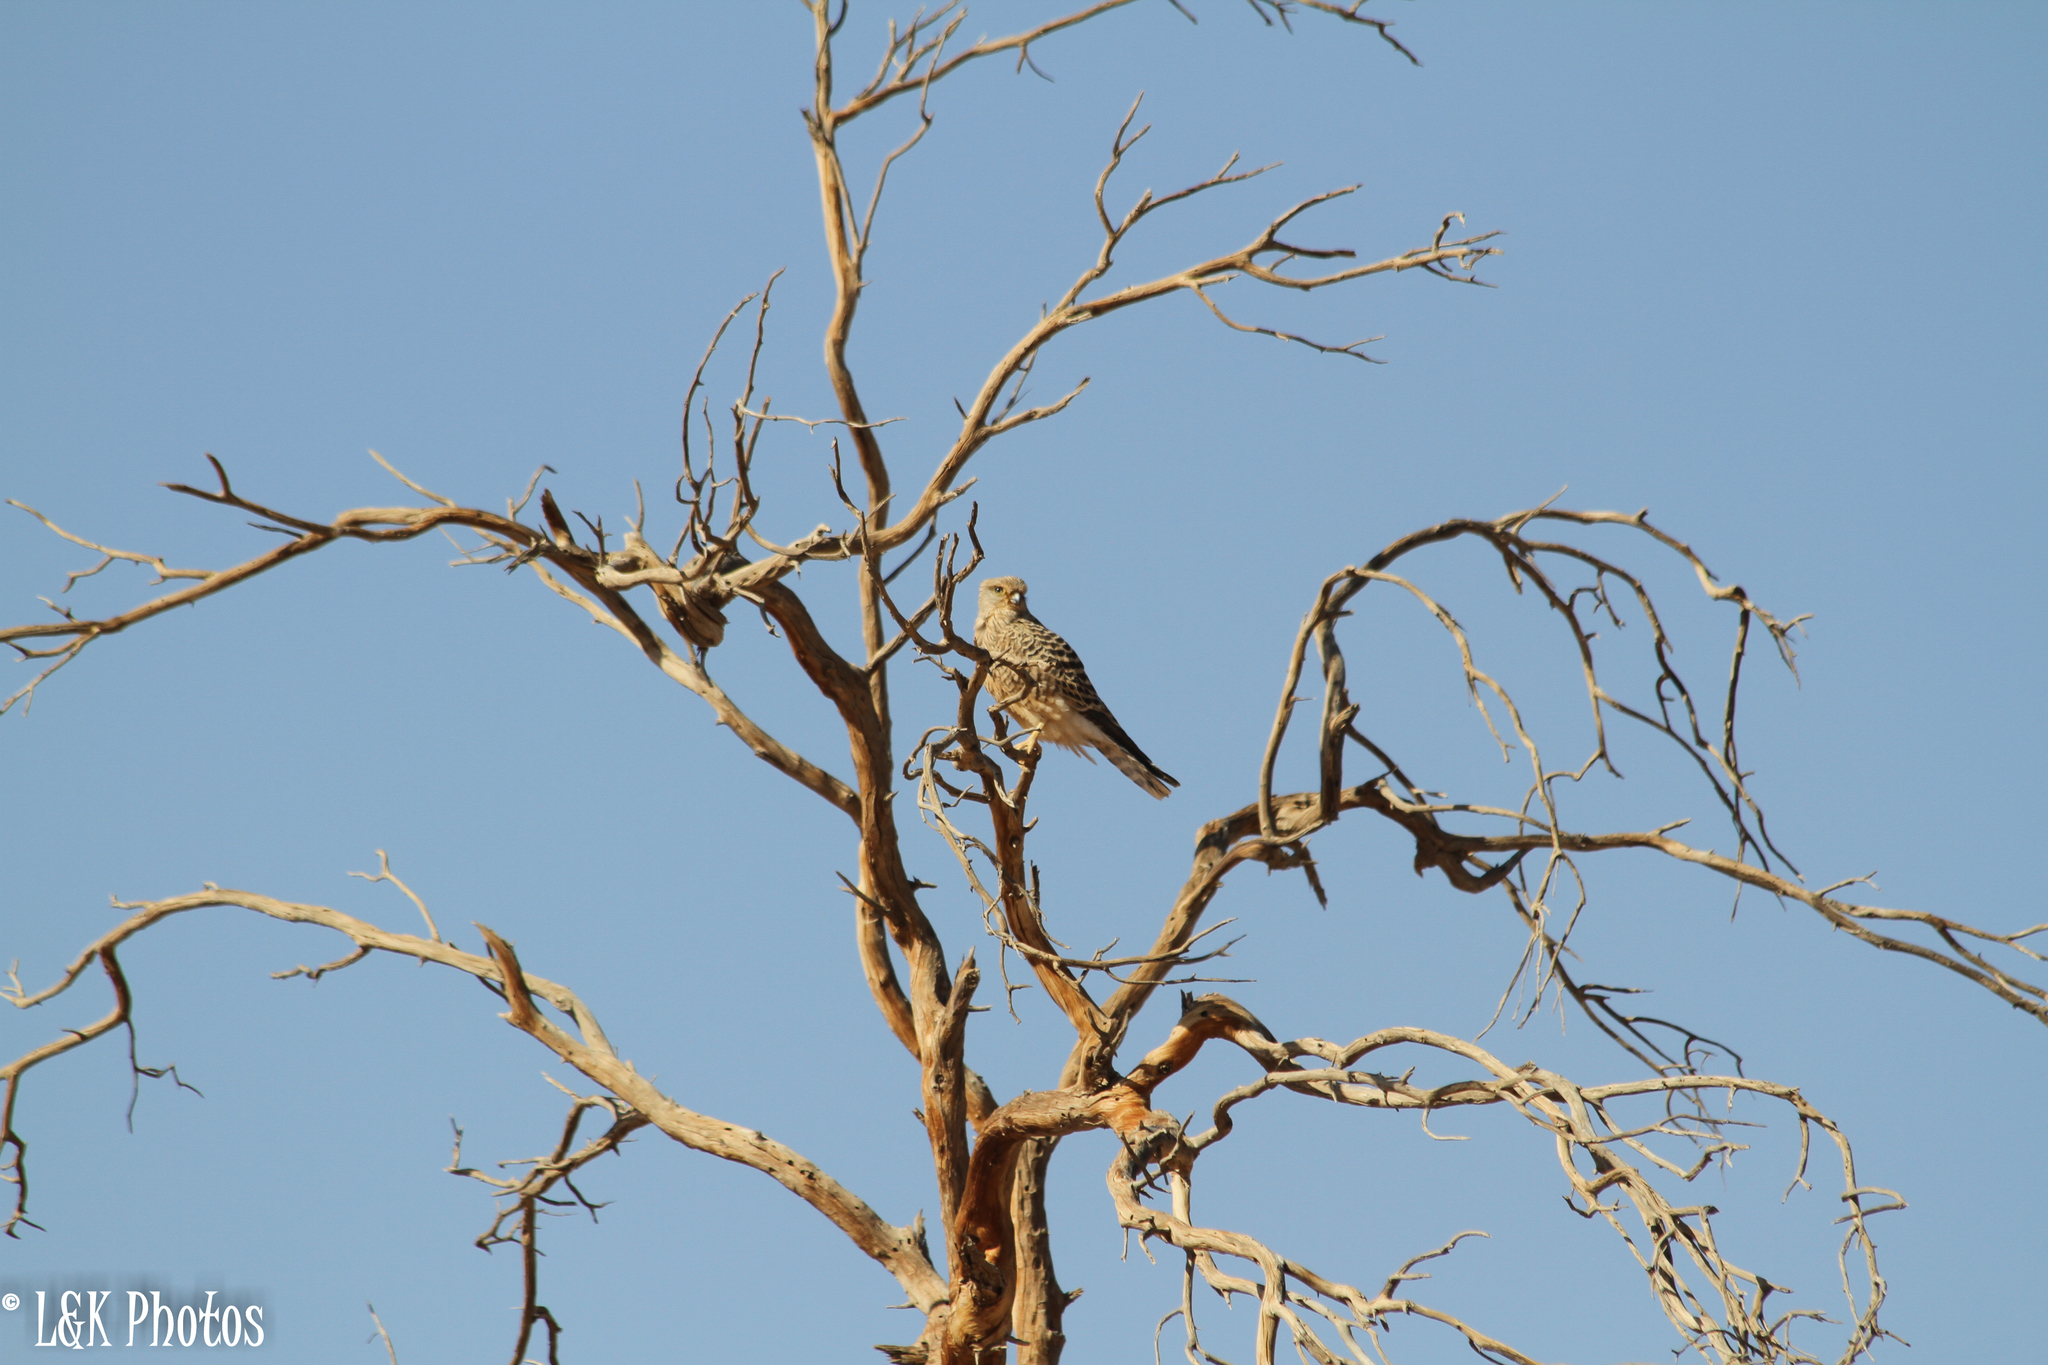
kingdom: Animalia
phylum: Chordata
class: Aves
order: Falconiformes
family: Falconidae
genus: Falco
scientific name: Falco rupicoloides
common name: Greater kestrel
